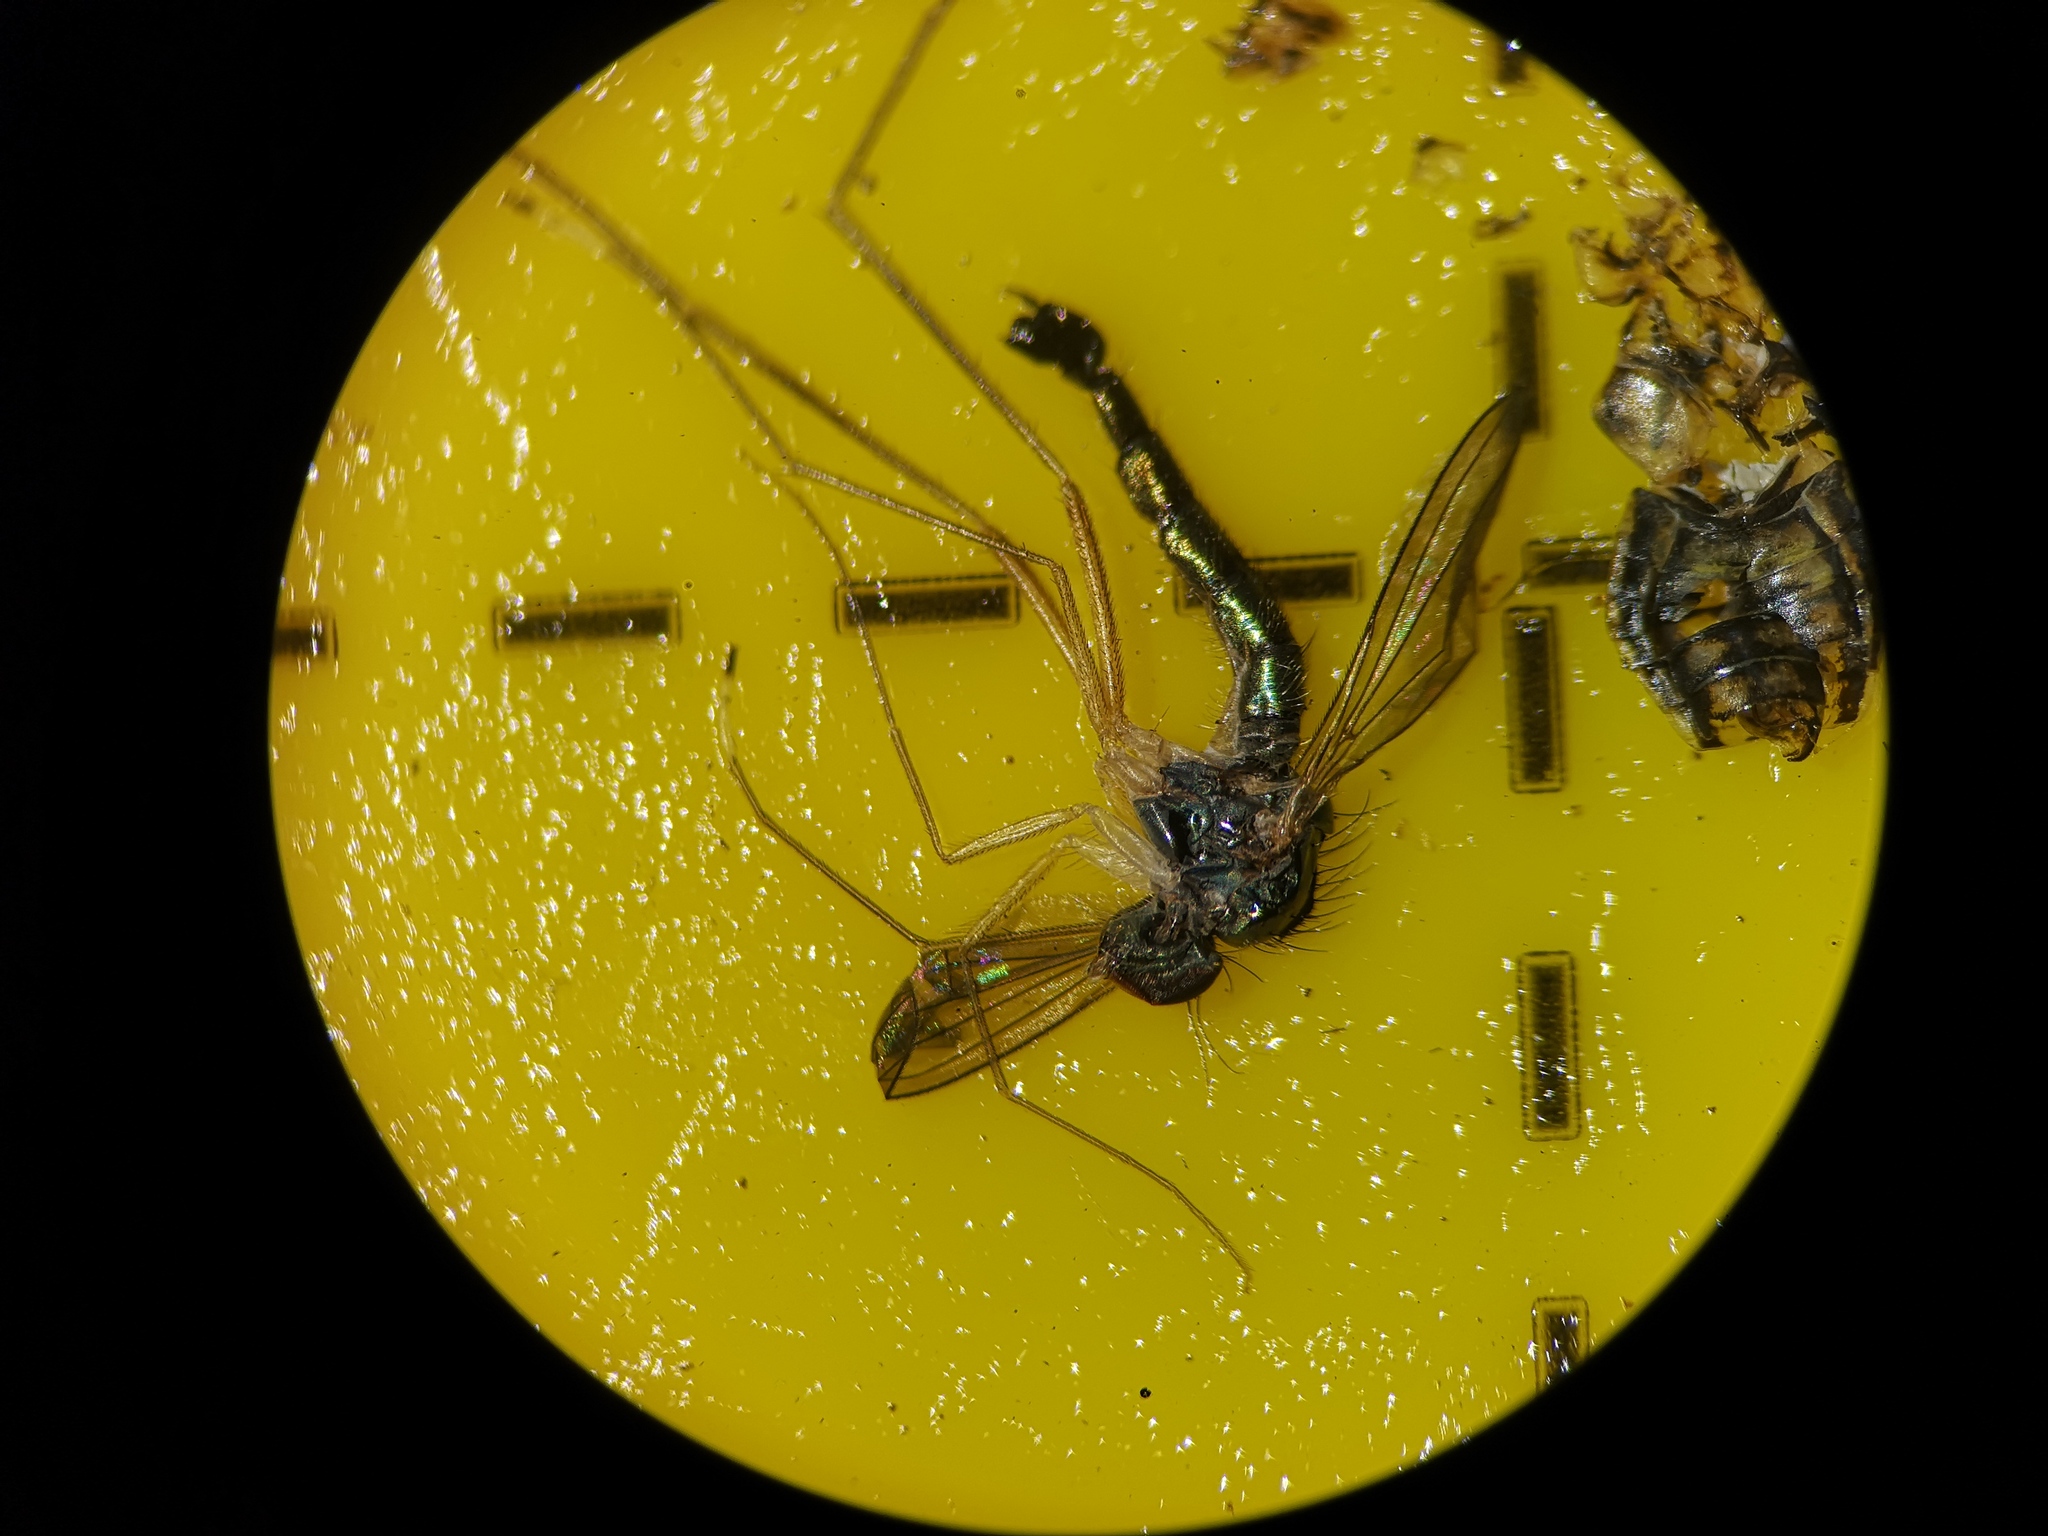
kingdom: Animalia
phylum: Arthropoda
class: Insecta
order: Diptera
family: Dolichopodidae
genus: Sciapus
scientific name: Sciapus platypterus
